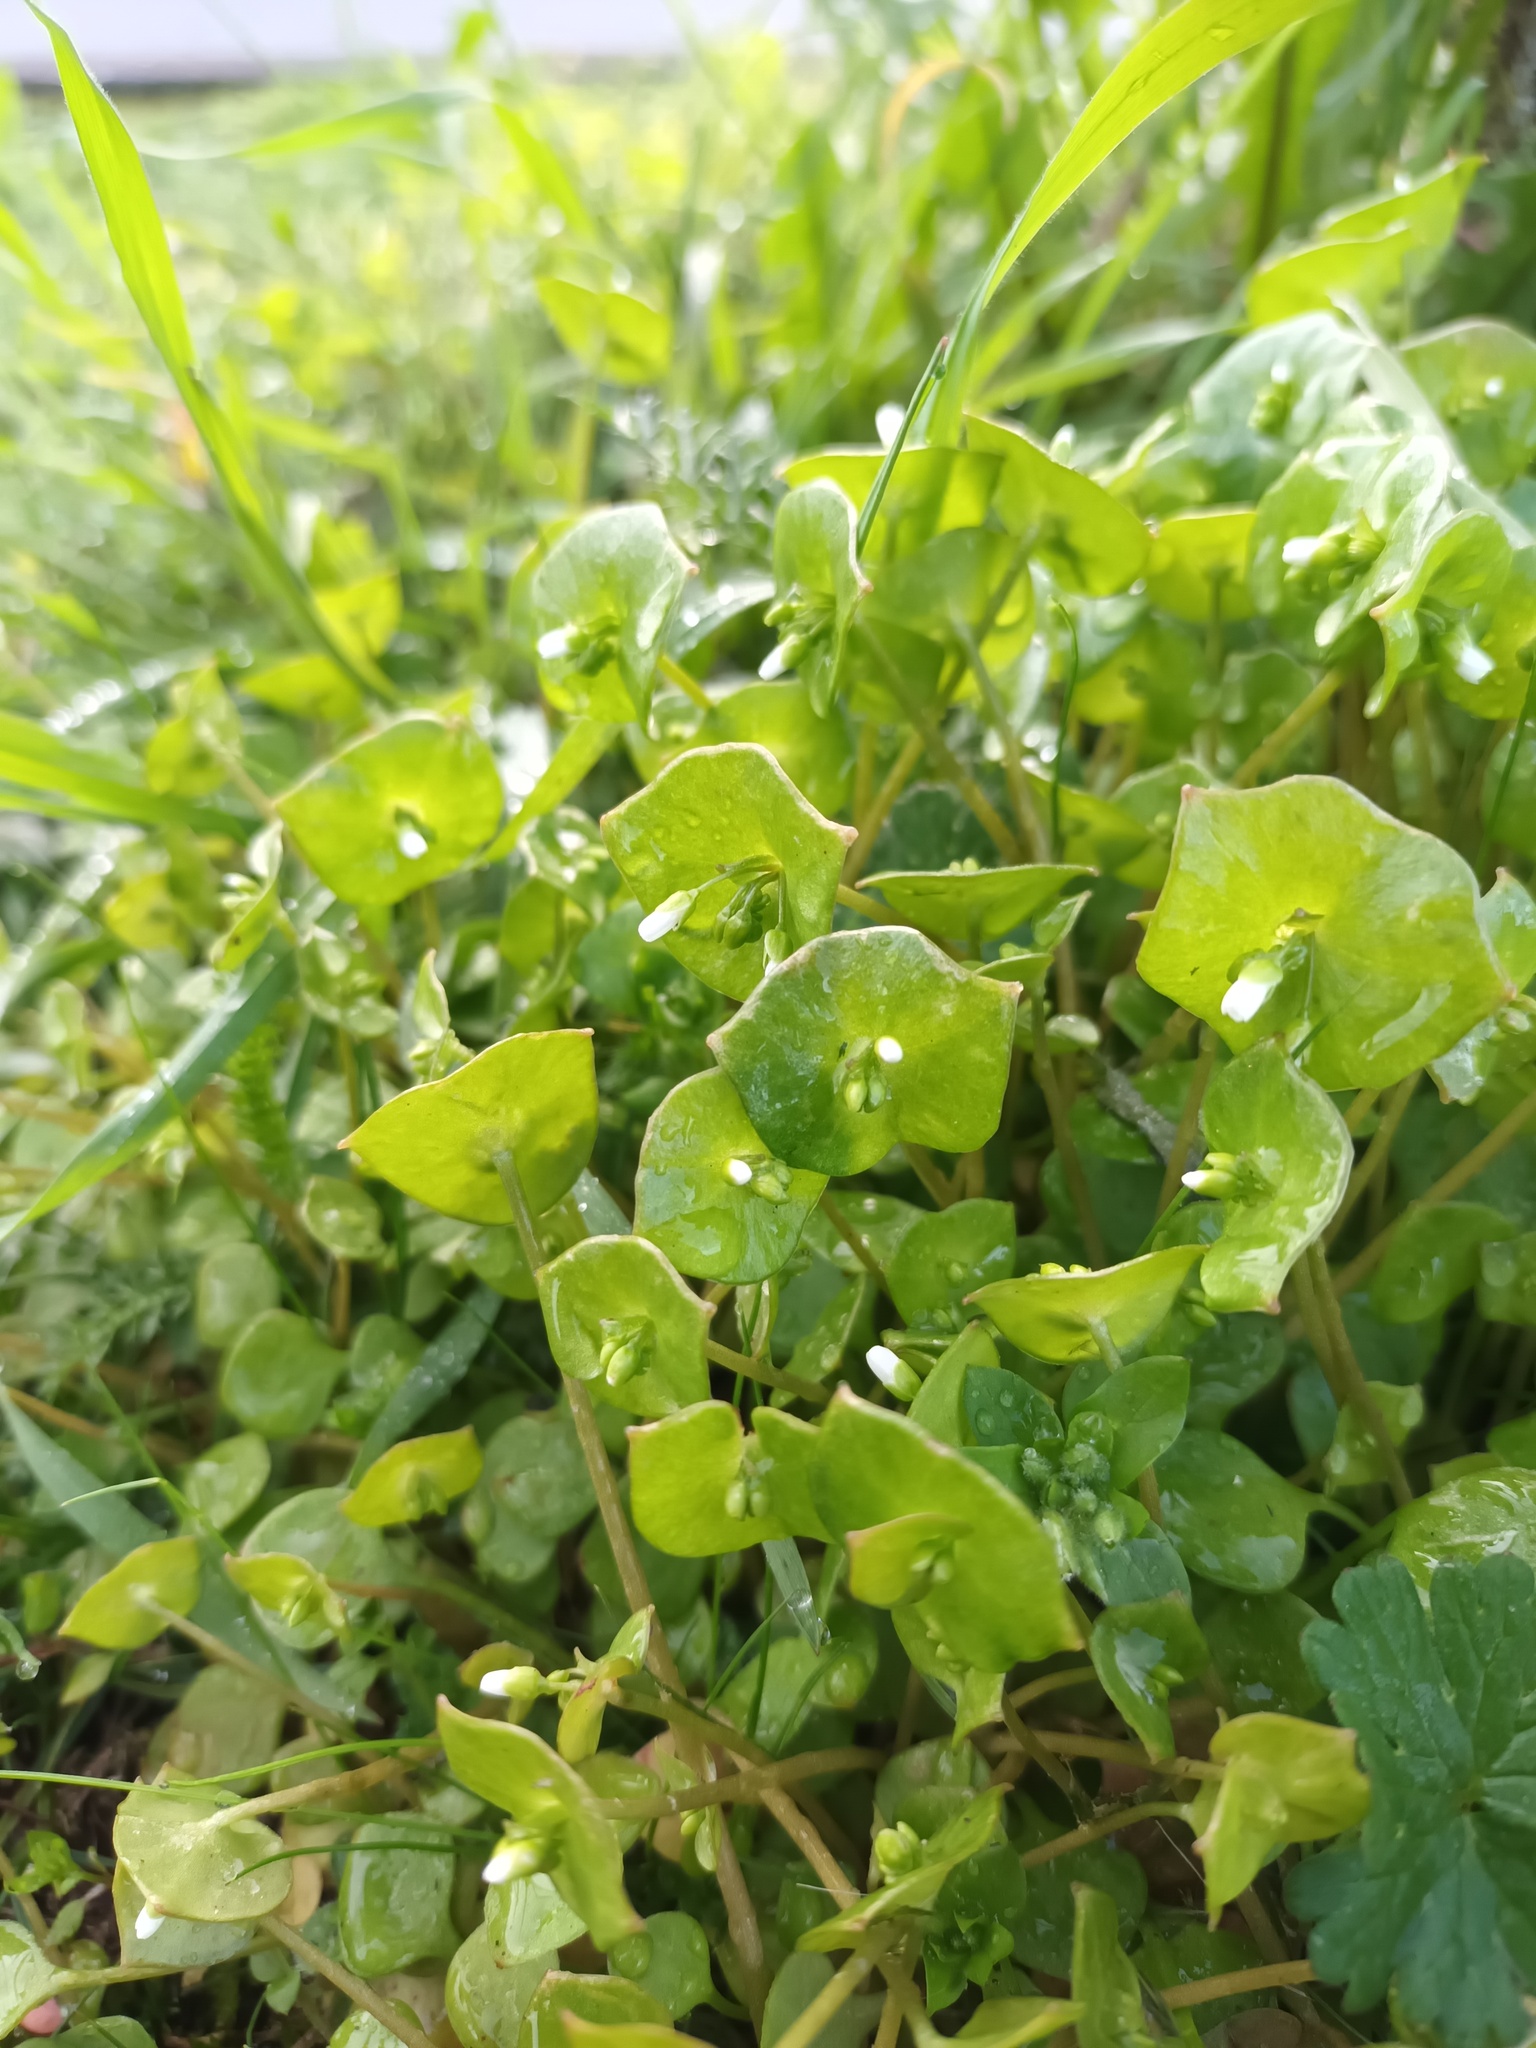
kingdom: Plantae
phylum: Tracheophyta
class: Magnoliopsida
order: Caryophyllales
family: Montiaceae
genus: Claytonia
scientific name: Claytonia perfoliata
